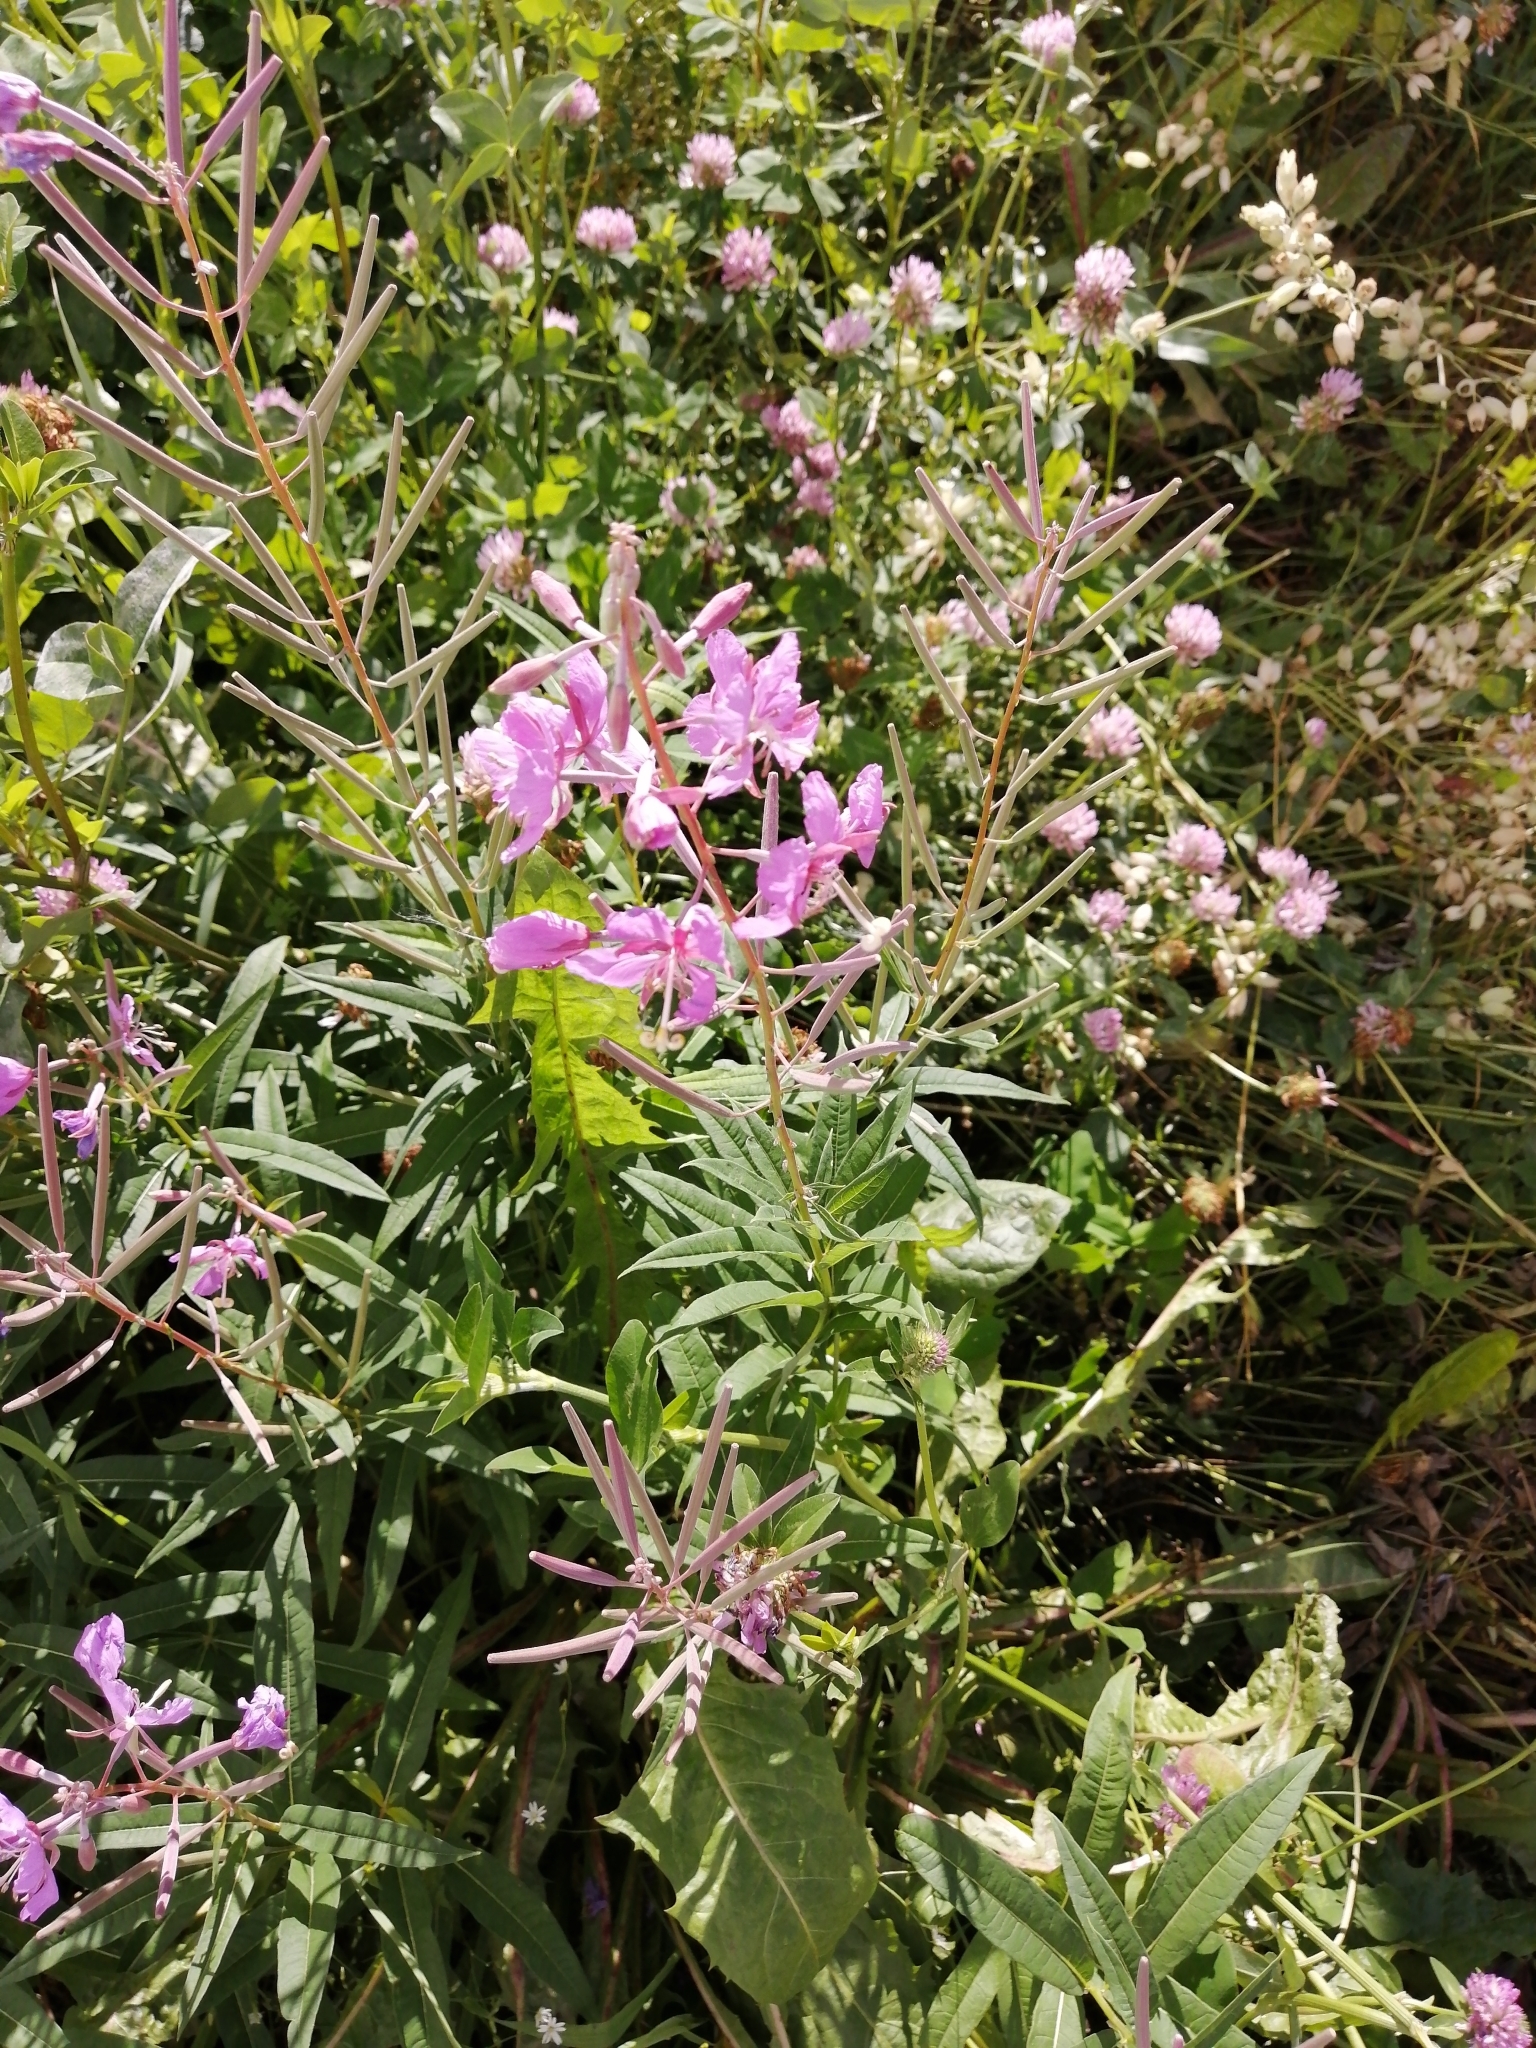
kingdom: Plantae
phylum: Tracheophyta
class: Magnoliopsida
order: Myrtales
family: Onagraceae
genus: Chamaenerion
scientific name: Chamaenerion angustifolium
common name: Fireweed
